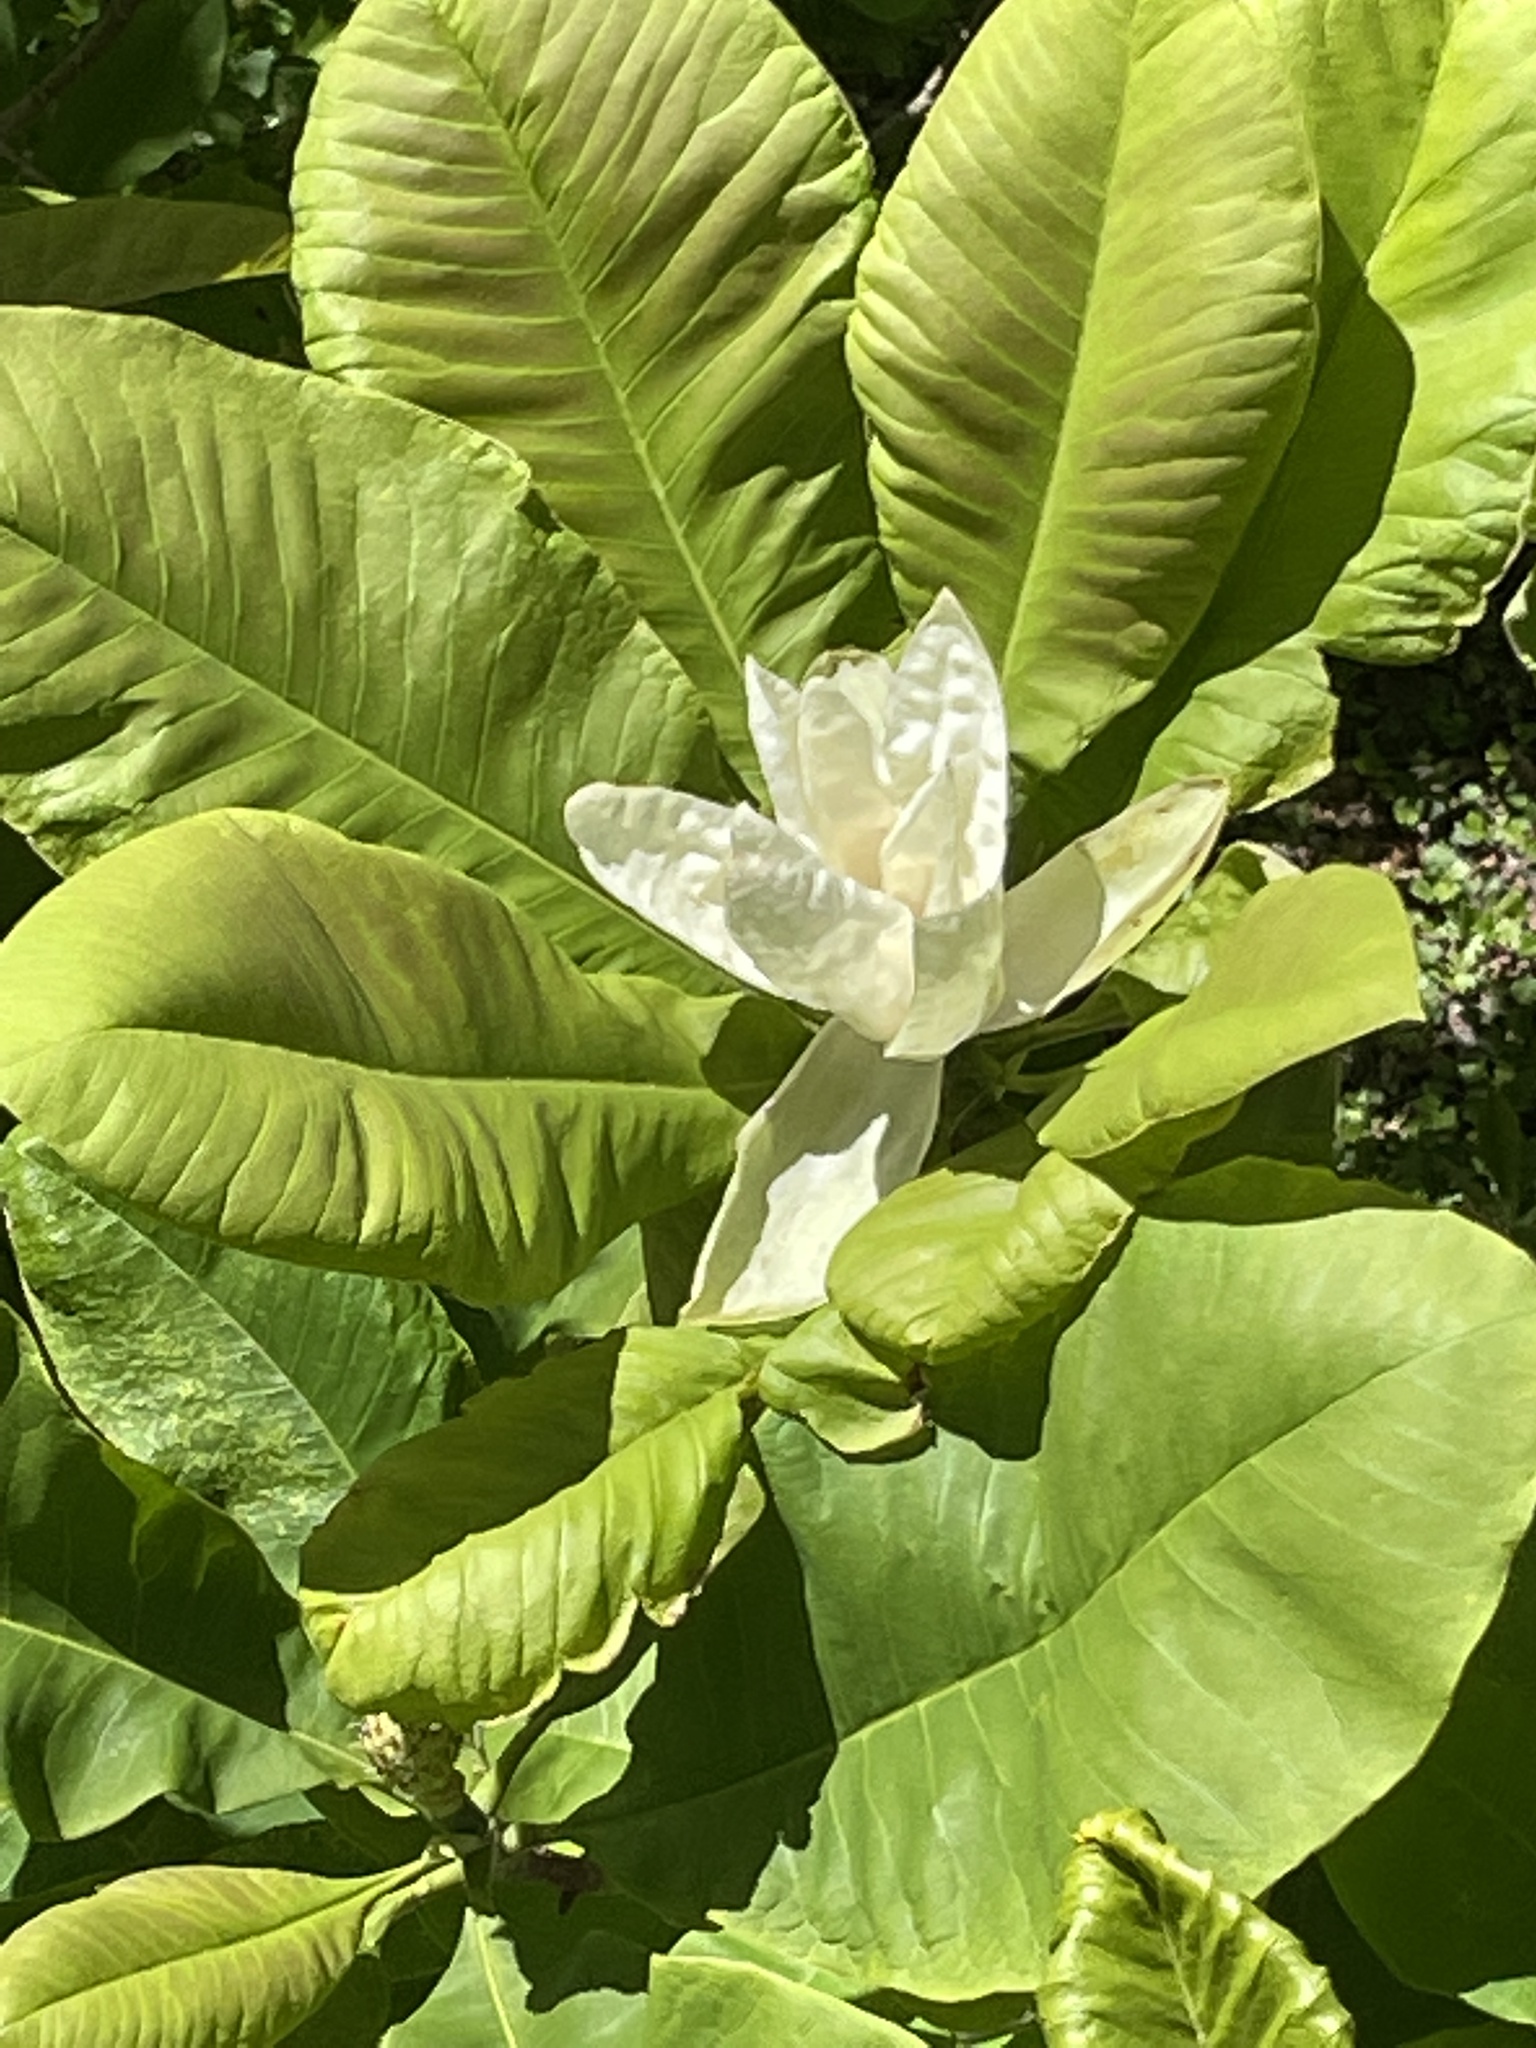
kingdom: Plantae
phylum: Tracheophyta
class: Magnoliopsida
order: Magnoliales
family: Magnoliaceae
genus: Magnolia
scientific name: Magnolia tripetala
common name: Umbrella magnolia
